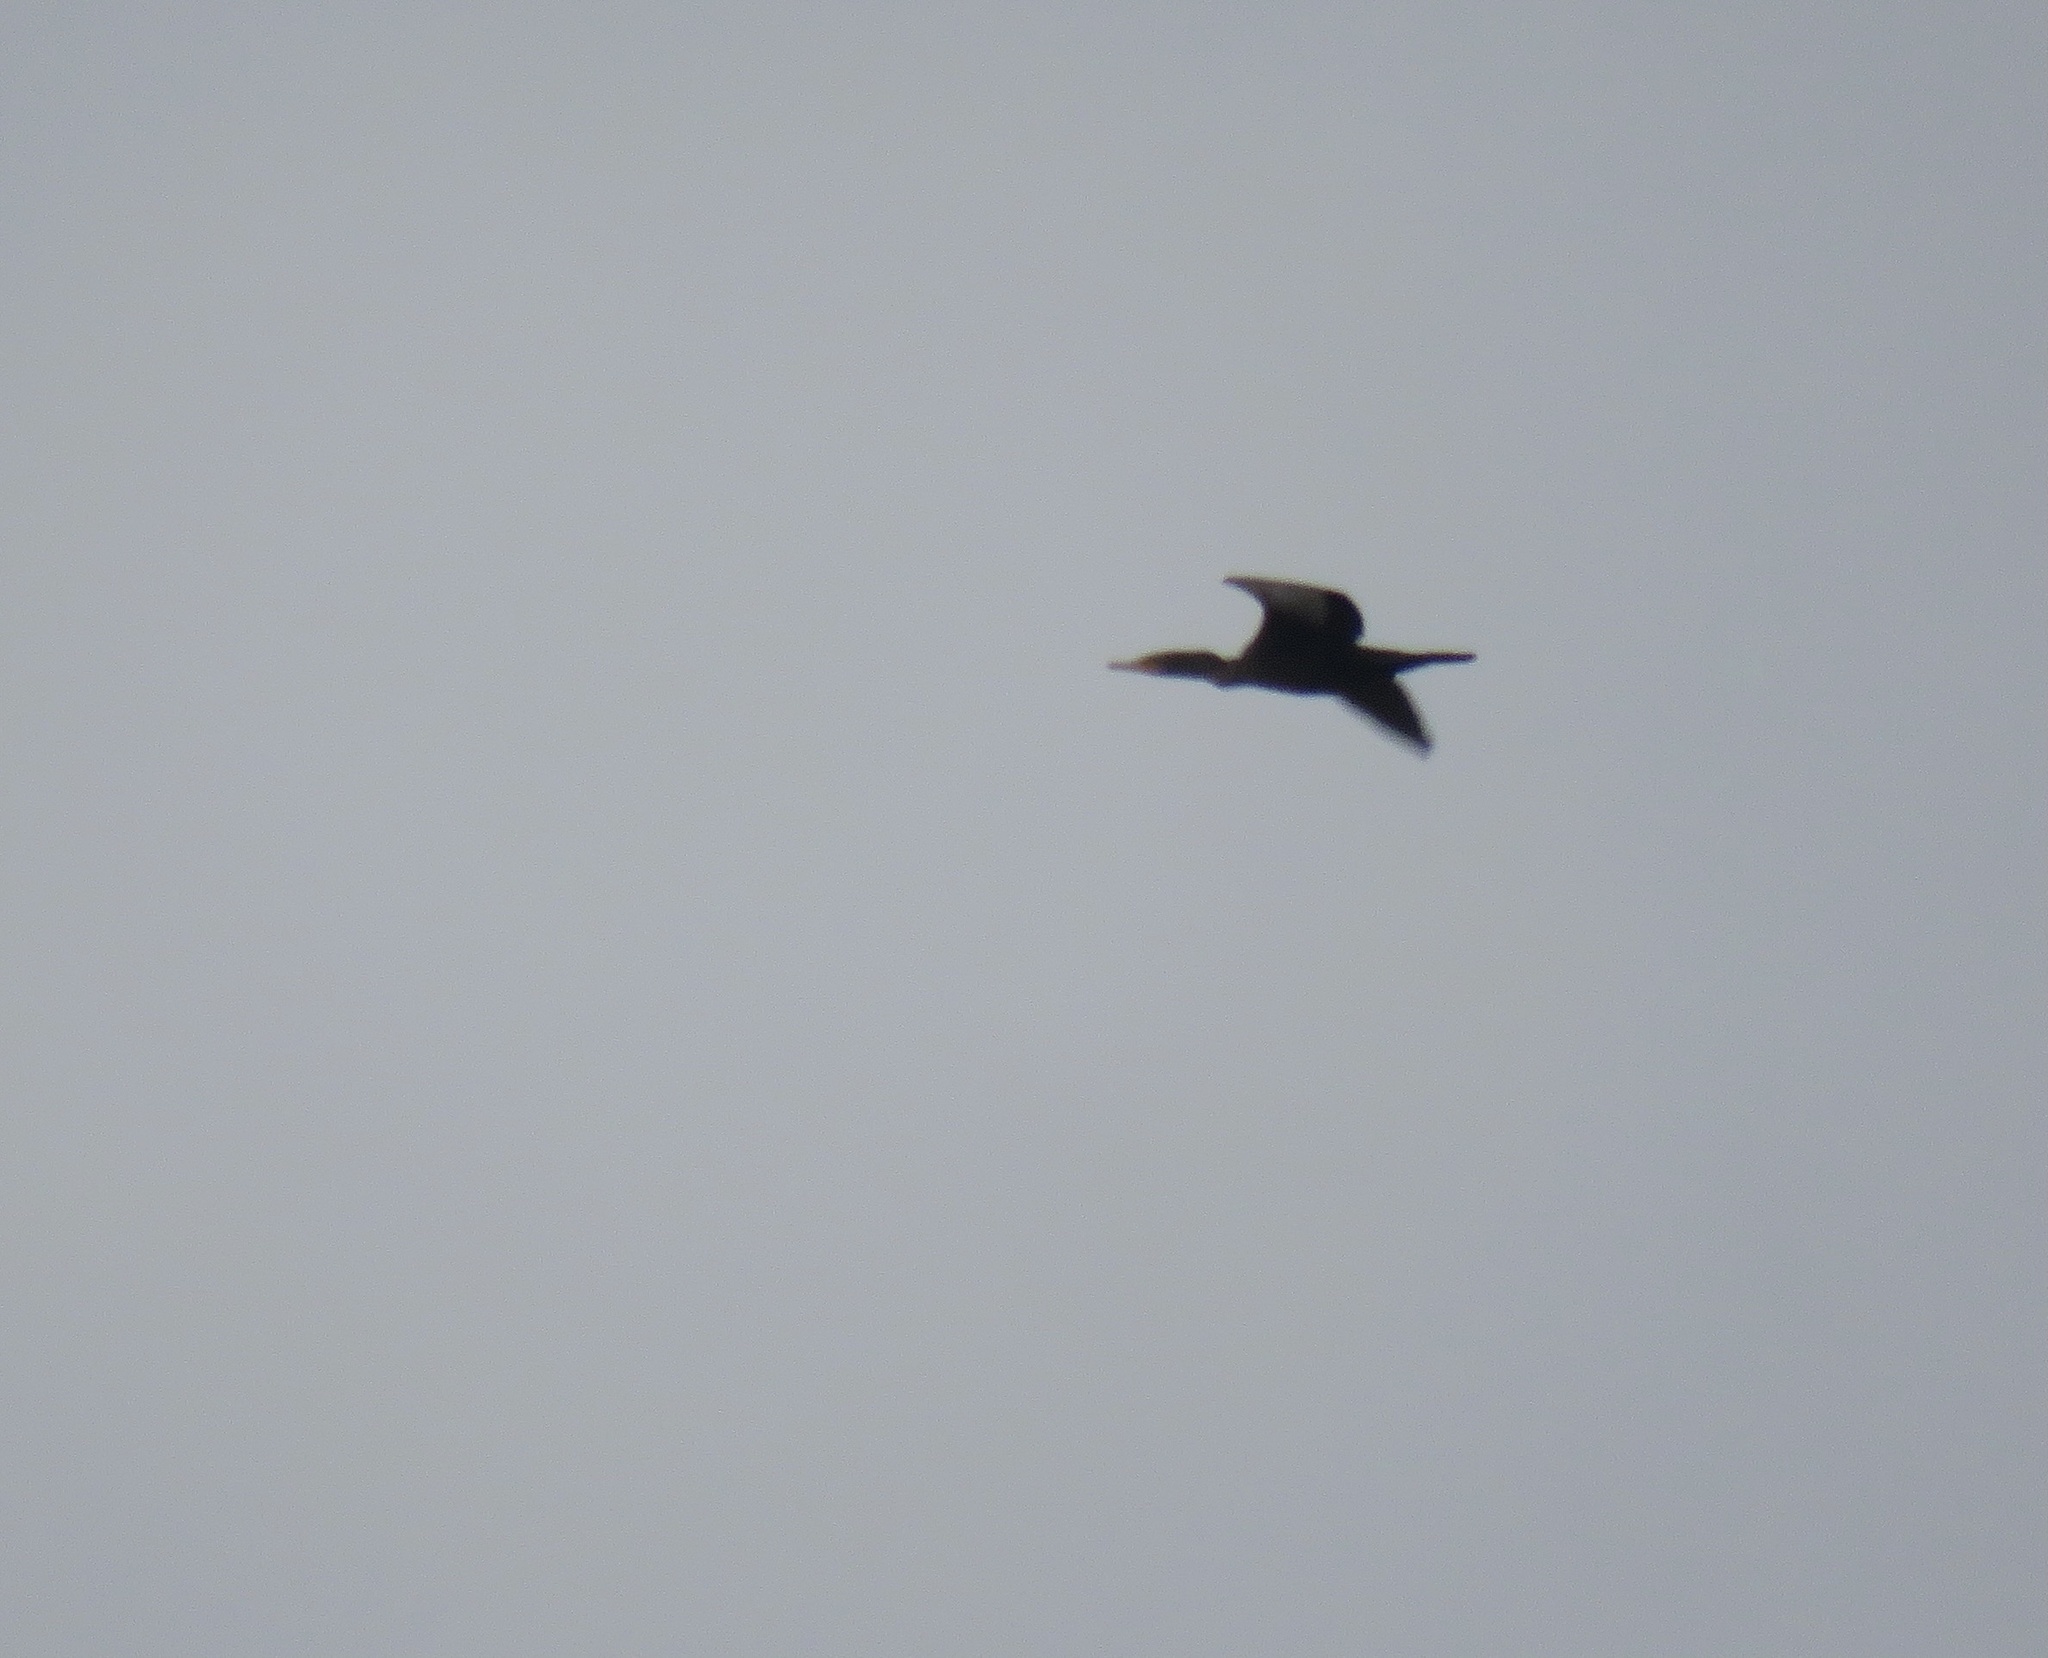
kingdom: Animalia
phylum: Chordata
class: Aves
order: Suliformes
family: Phalacrocoracidae
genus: Phalacrocorax
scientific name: Phalacrocorax auritus
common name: Double-crested cormorant
